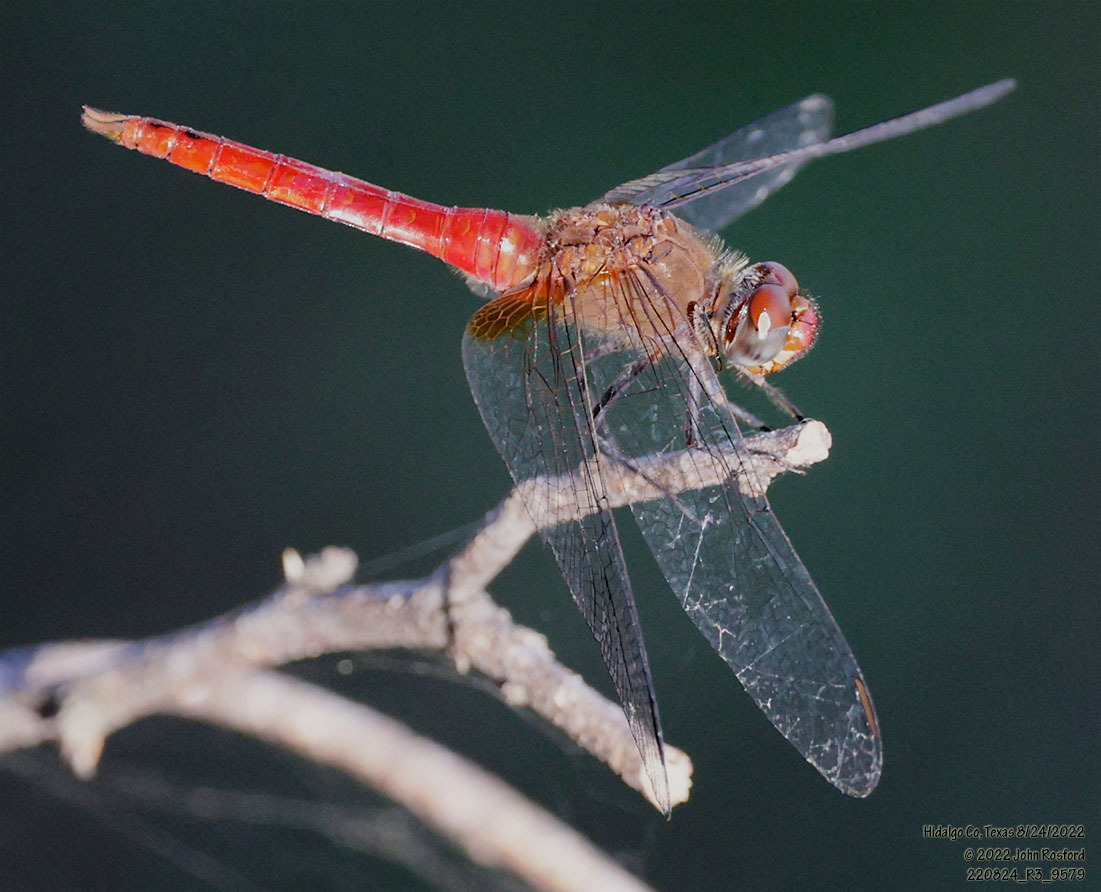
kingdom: Animalia
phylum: Arthropoda
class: Insecta
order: Odonata
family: Libellulidae
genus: Brachymesia
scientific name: Brachymesia furcata
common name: Red-taled pennant
